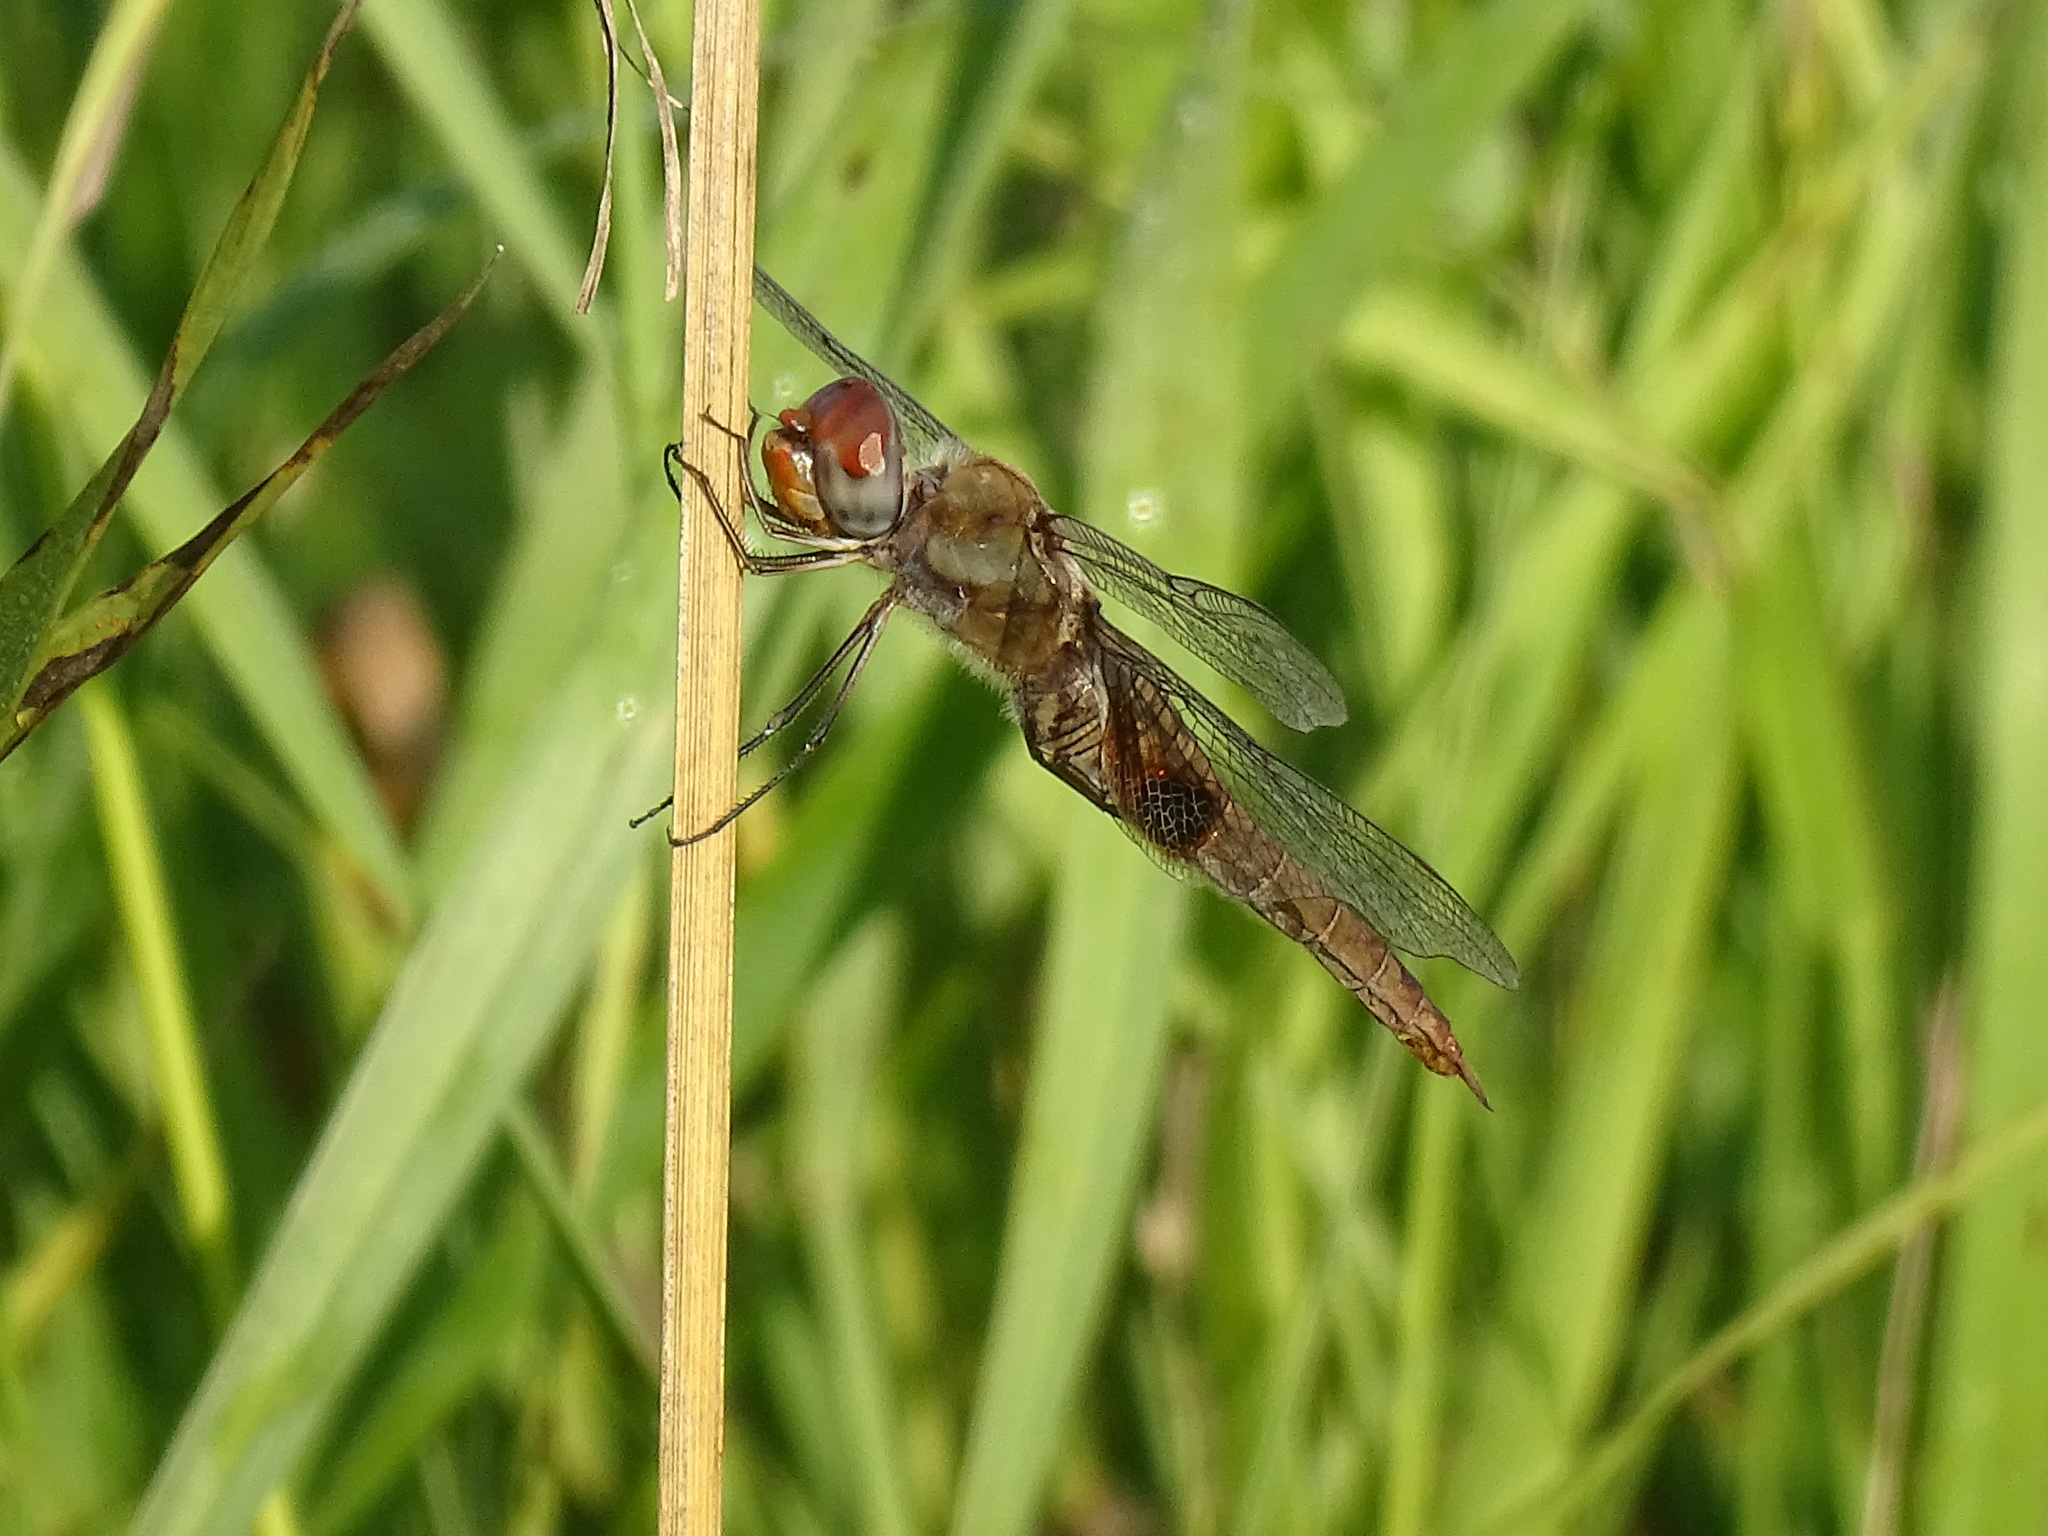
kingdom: Animalia
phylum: Arthropoda
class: Insecta
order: Odonata
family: Libellulidae
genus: Pantala
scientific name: Pantala hymenaea
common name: Spot-winged glider
